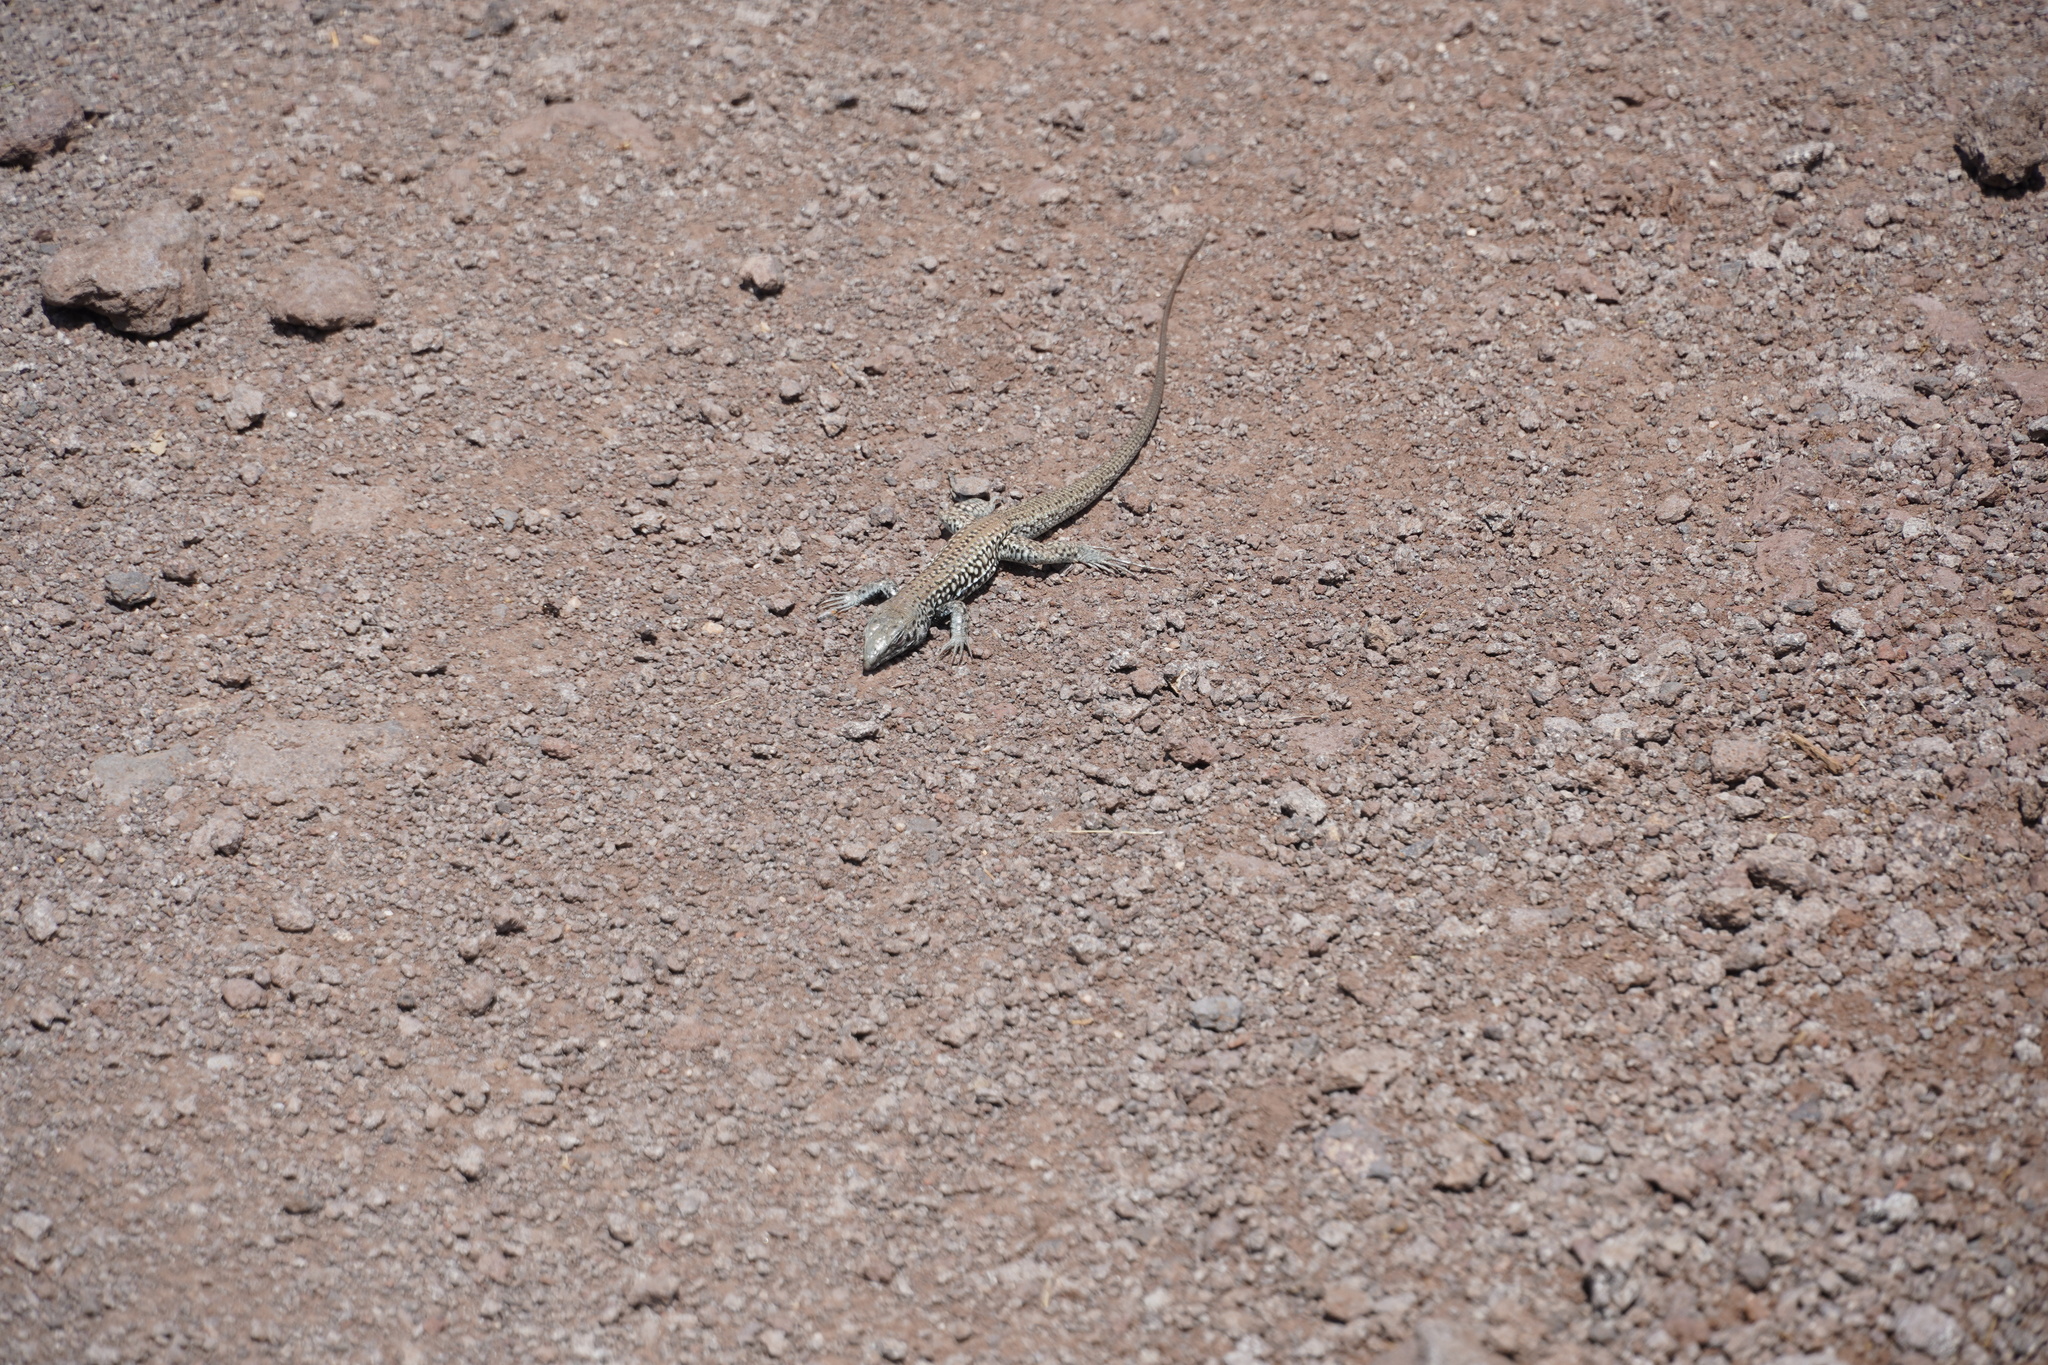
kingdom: Animalia
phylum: Chordata
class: Squamata
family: Teiidae
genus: Aspidoscelis
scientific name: Aspidoscelis tigris
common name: Tiger whiptail
